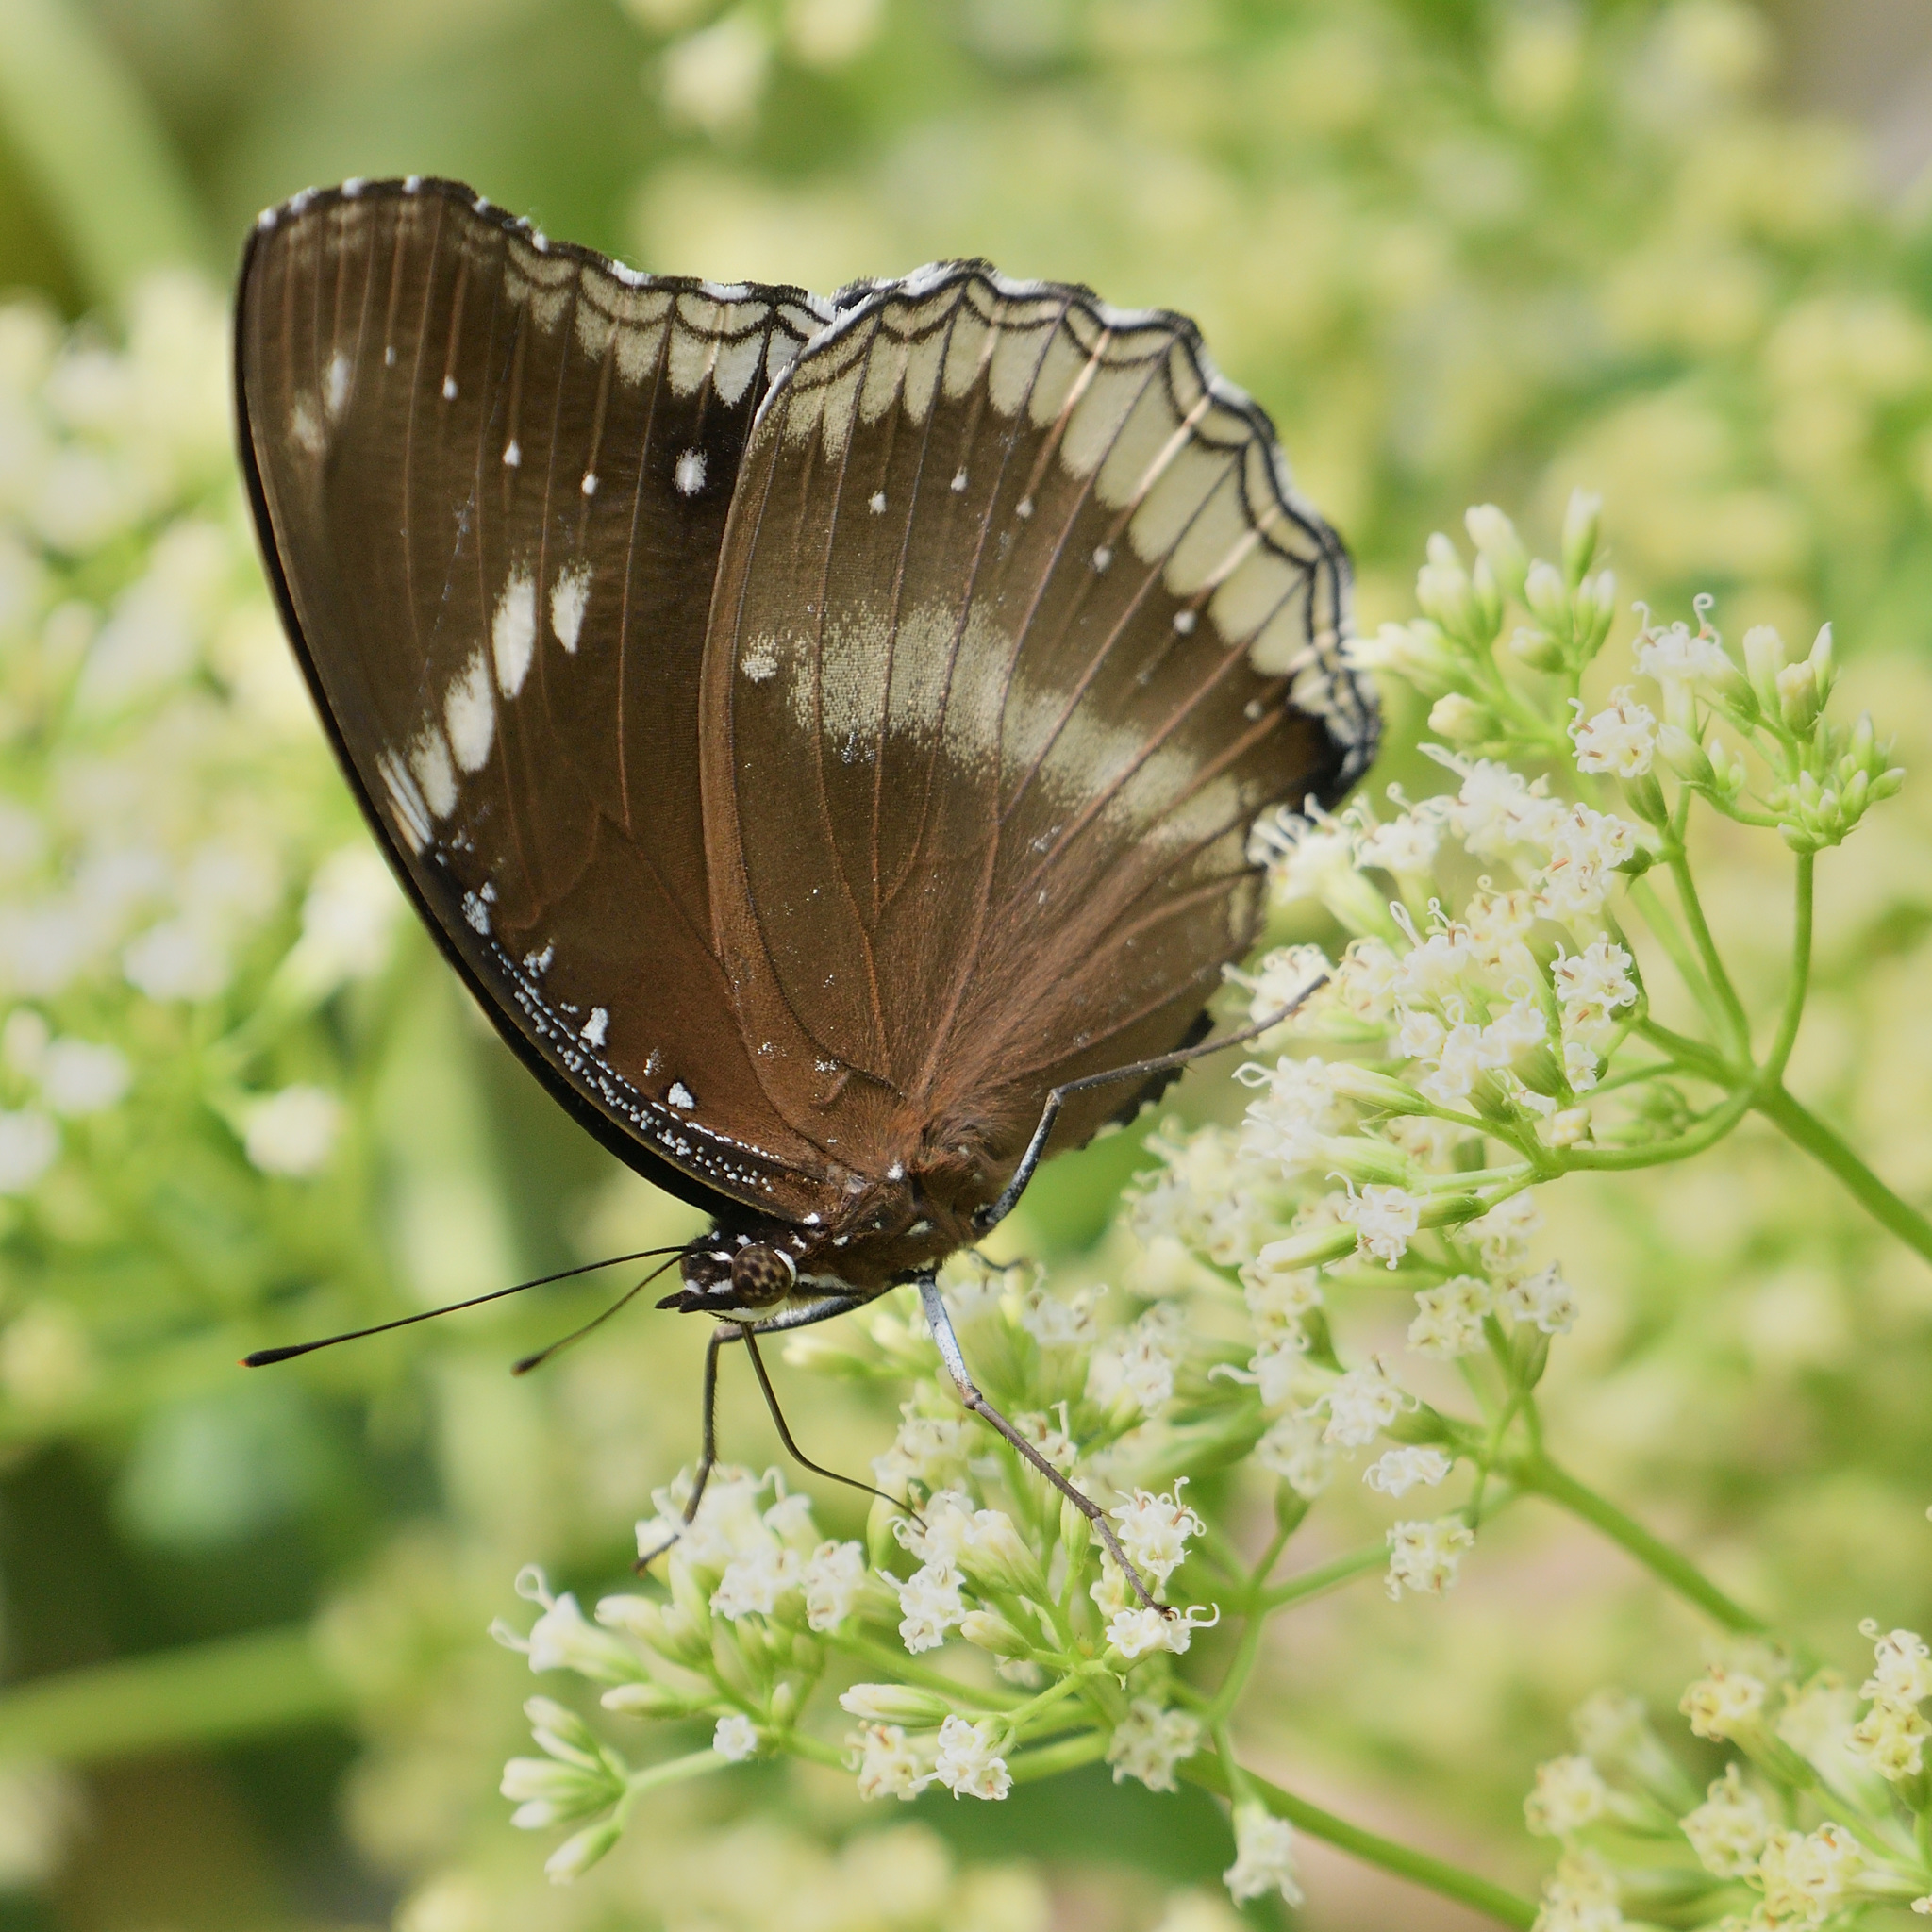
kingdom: Animalia
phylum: Arthropoda
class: Insecta
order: Lepidoptera
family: Nymphalidae
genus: Hypolimnas
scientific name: Hypolimnas bolina
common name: Great eggfly
